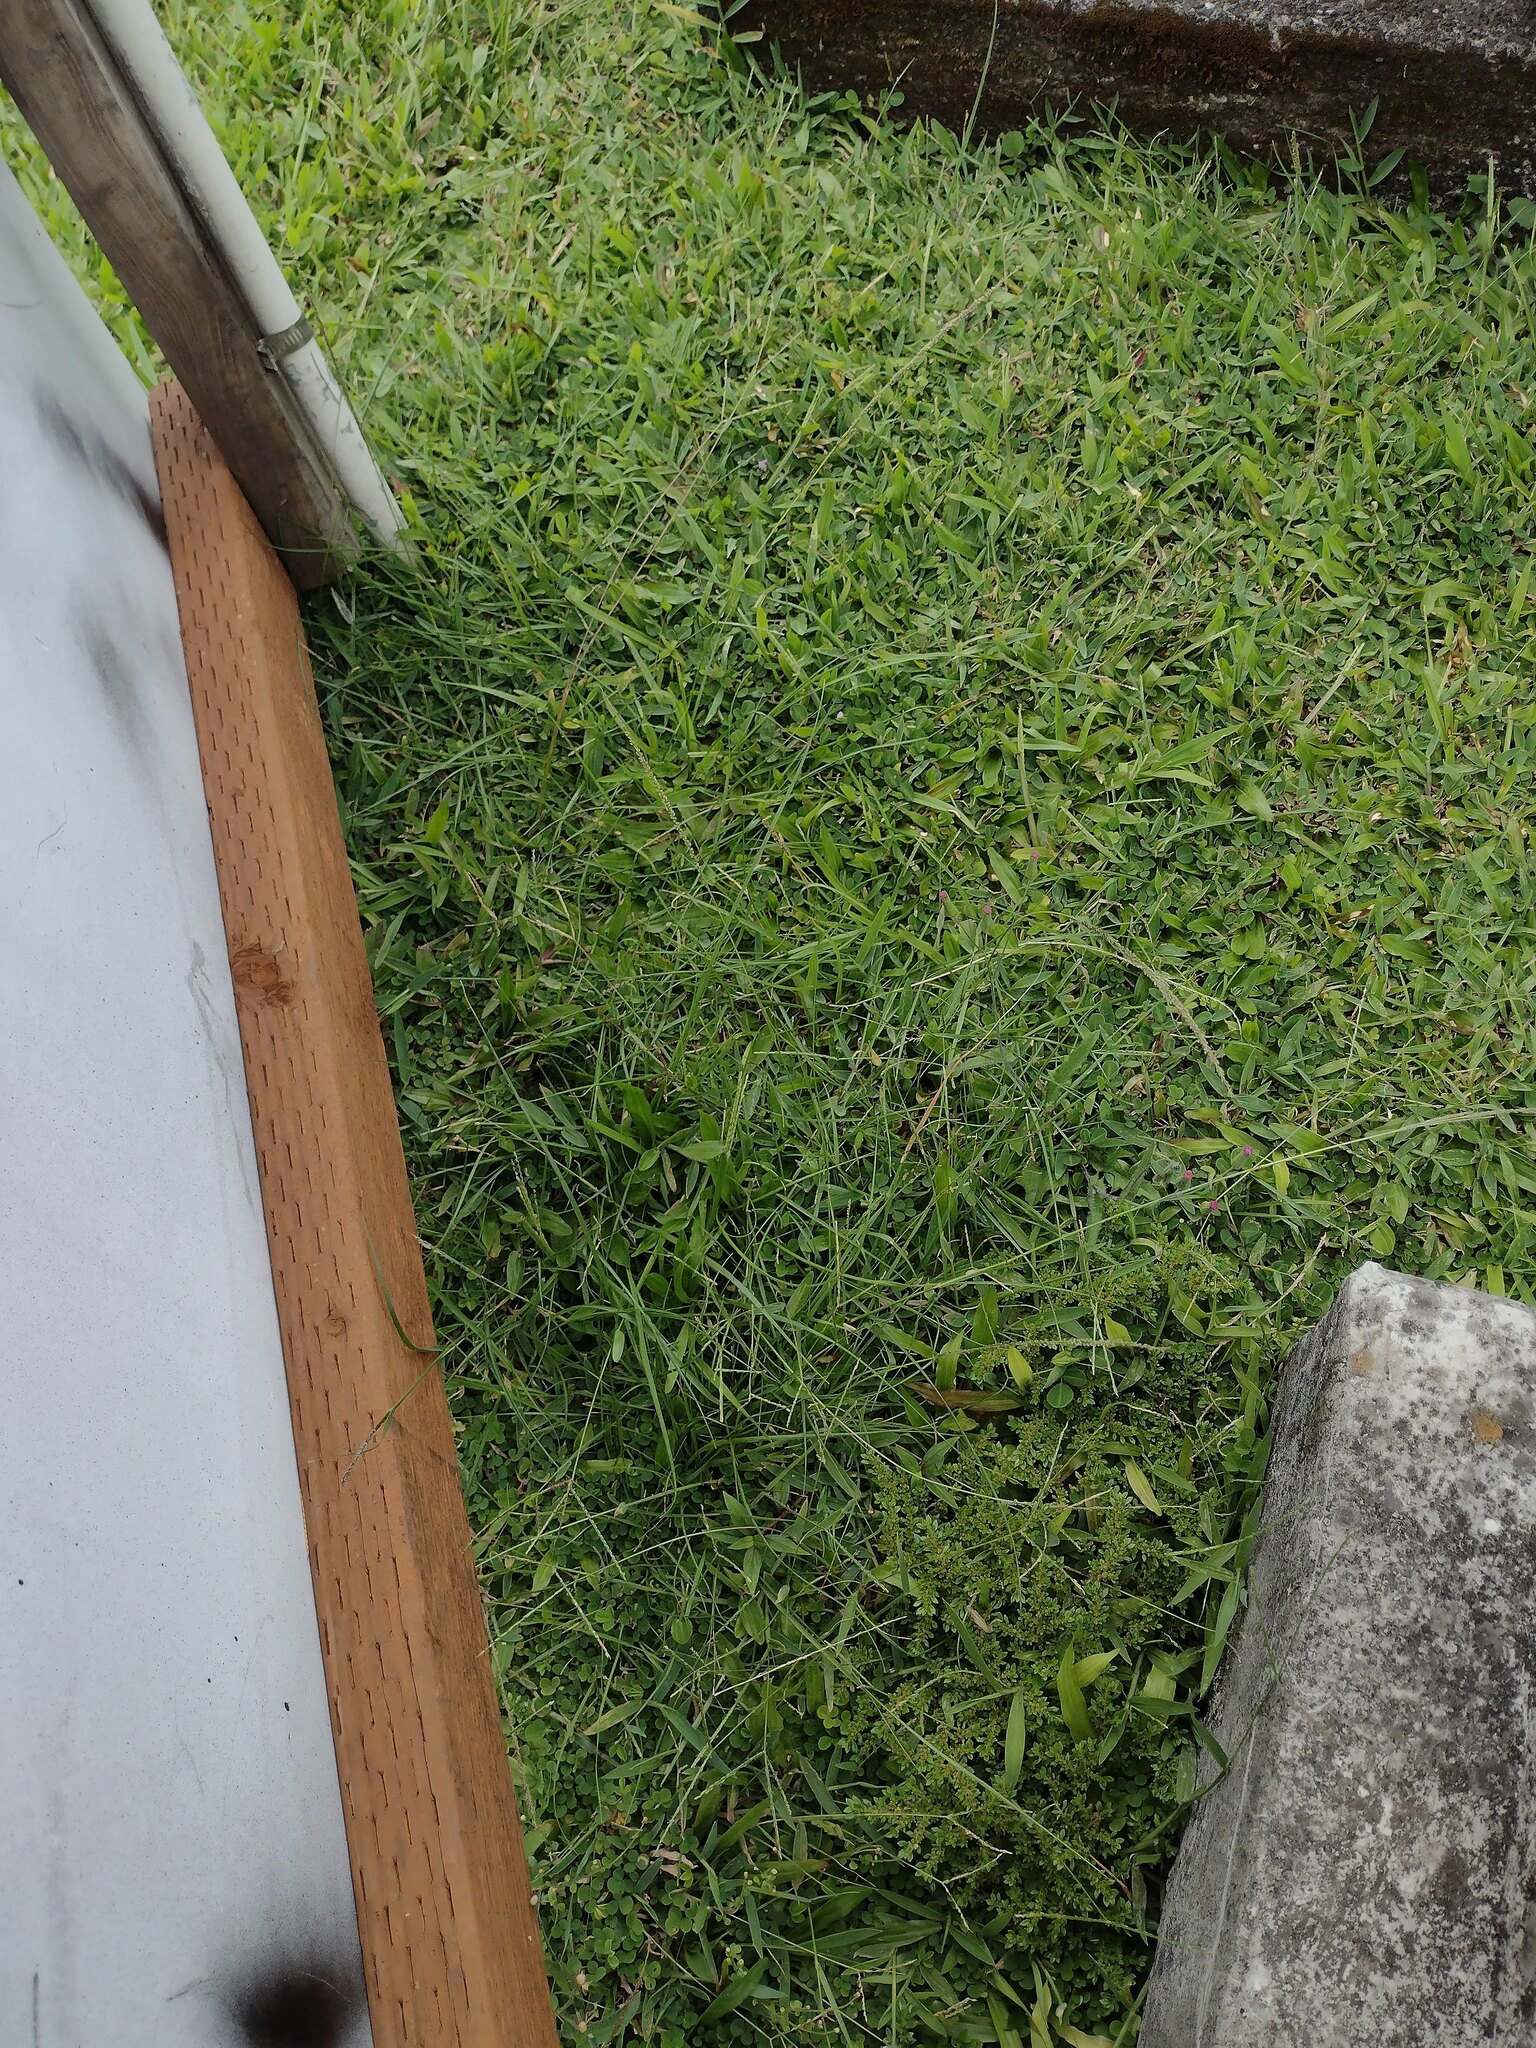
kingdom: Plantae
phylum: Tracheophyta
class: Magnoliopsida
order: Rosales
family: Urticaceae
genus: Pilea
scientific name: Pilea microphylla
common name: Artillery-plant
